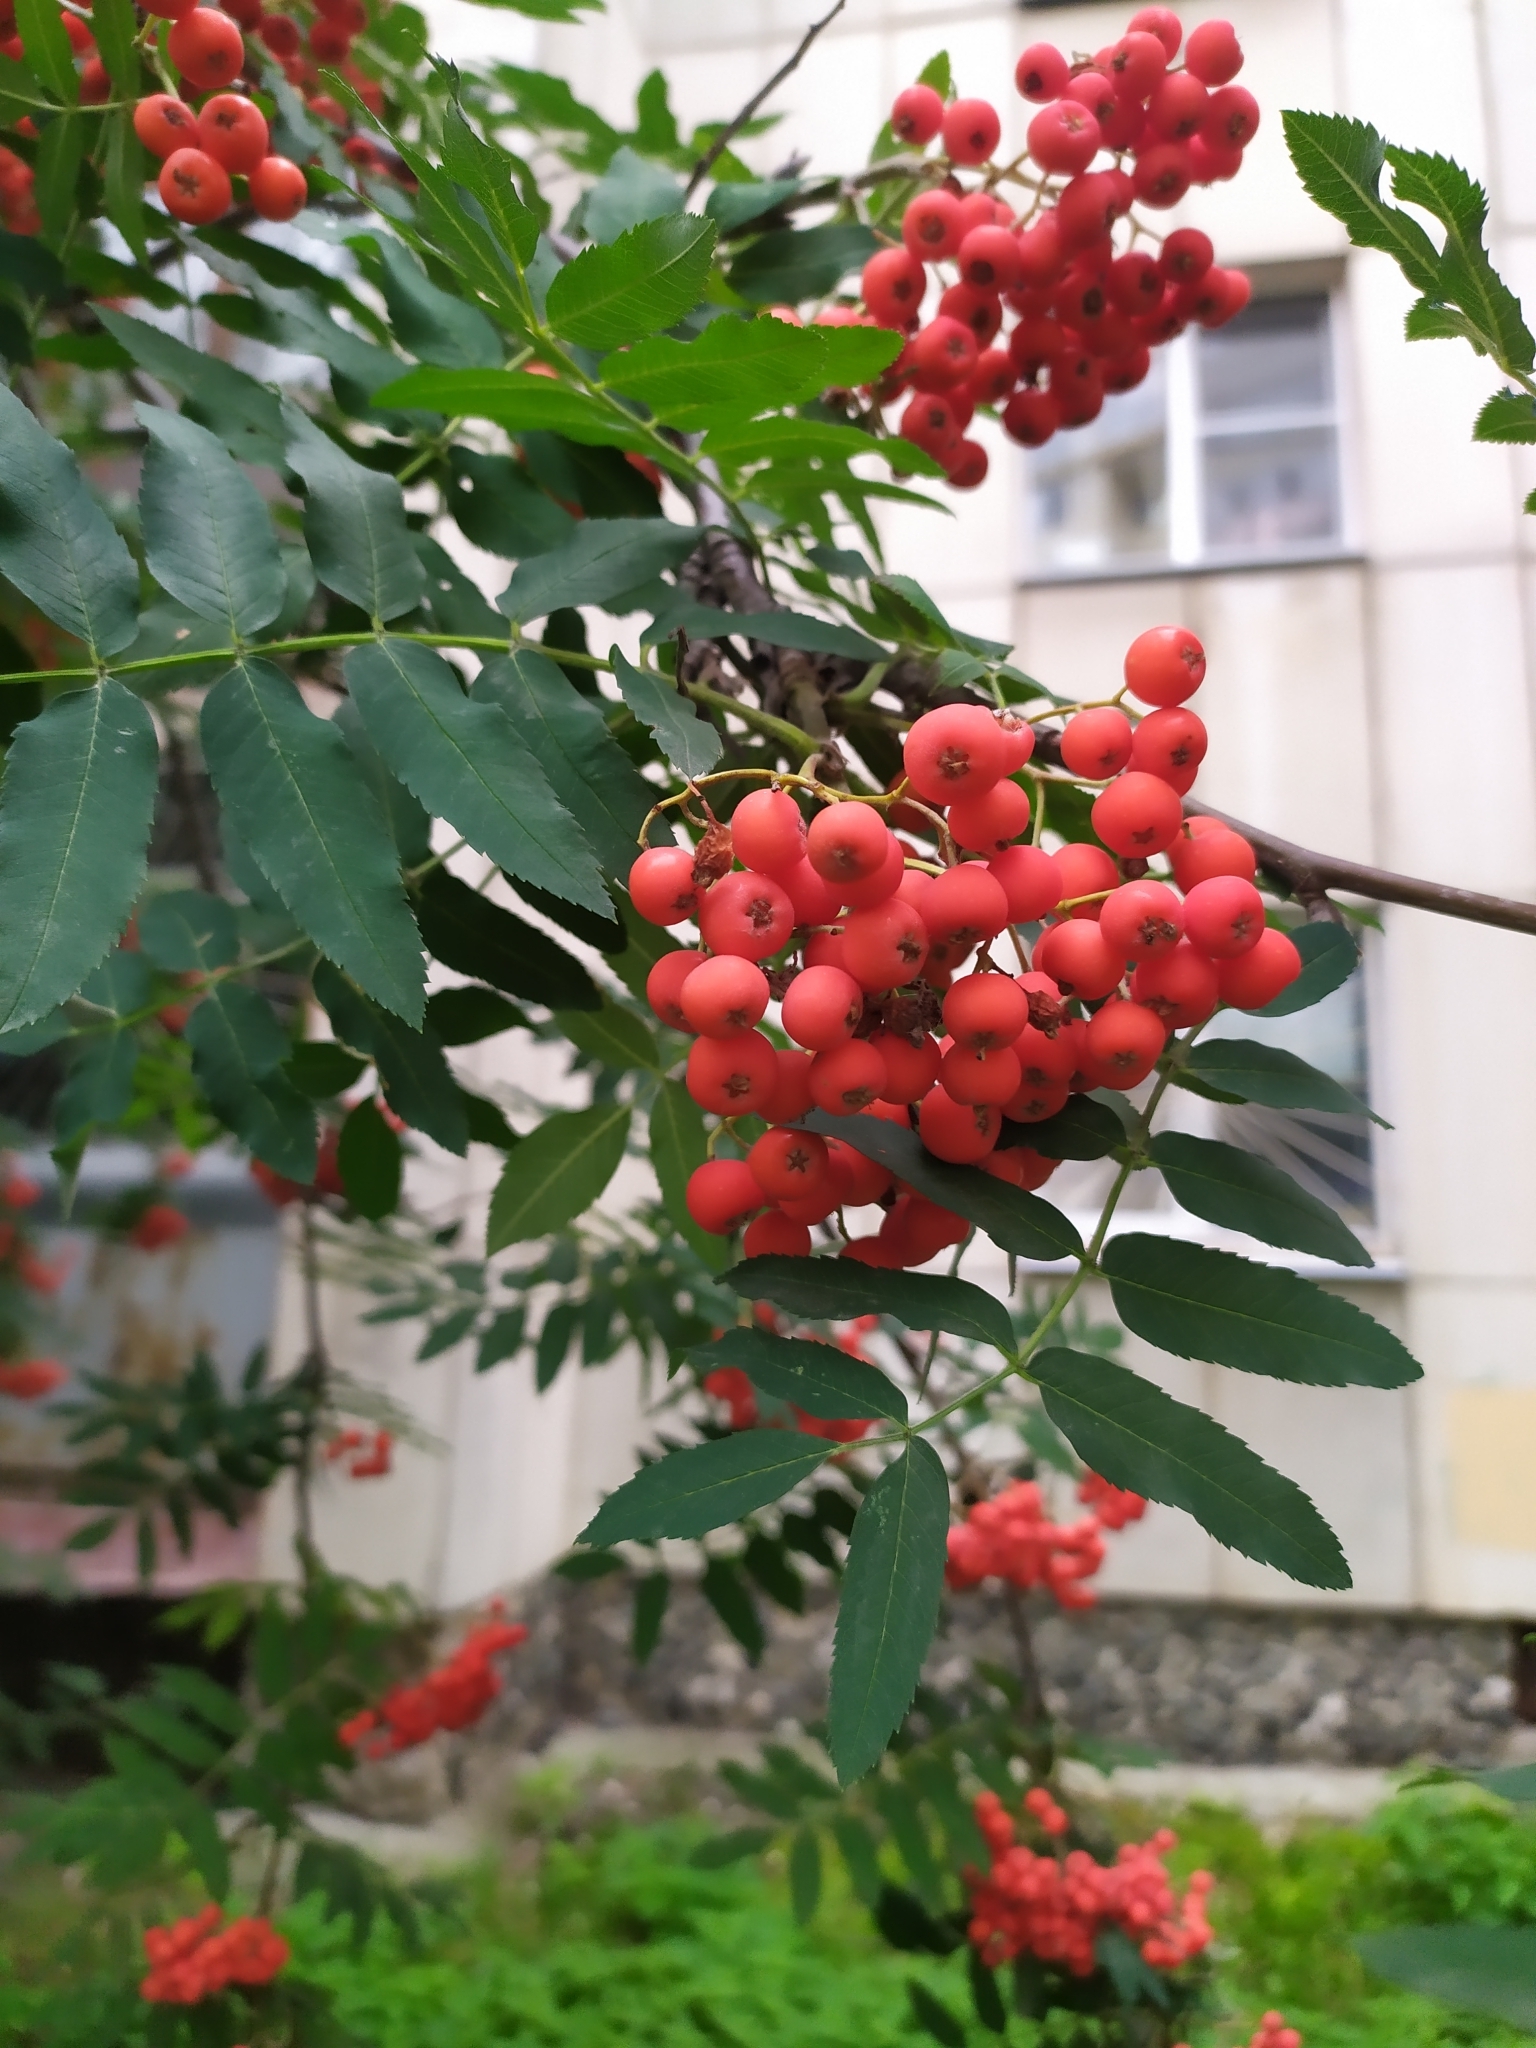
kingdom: Plantae
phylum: Tracheophyta
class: Magnoliopsida
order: Rosales
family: Rosaceae
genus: Sorbus
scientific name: Sorbus aucuparia
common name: Rowan
